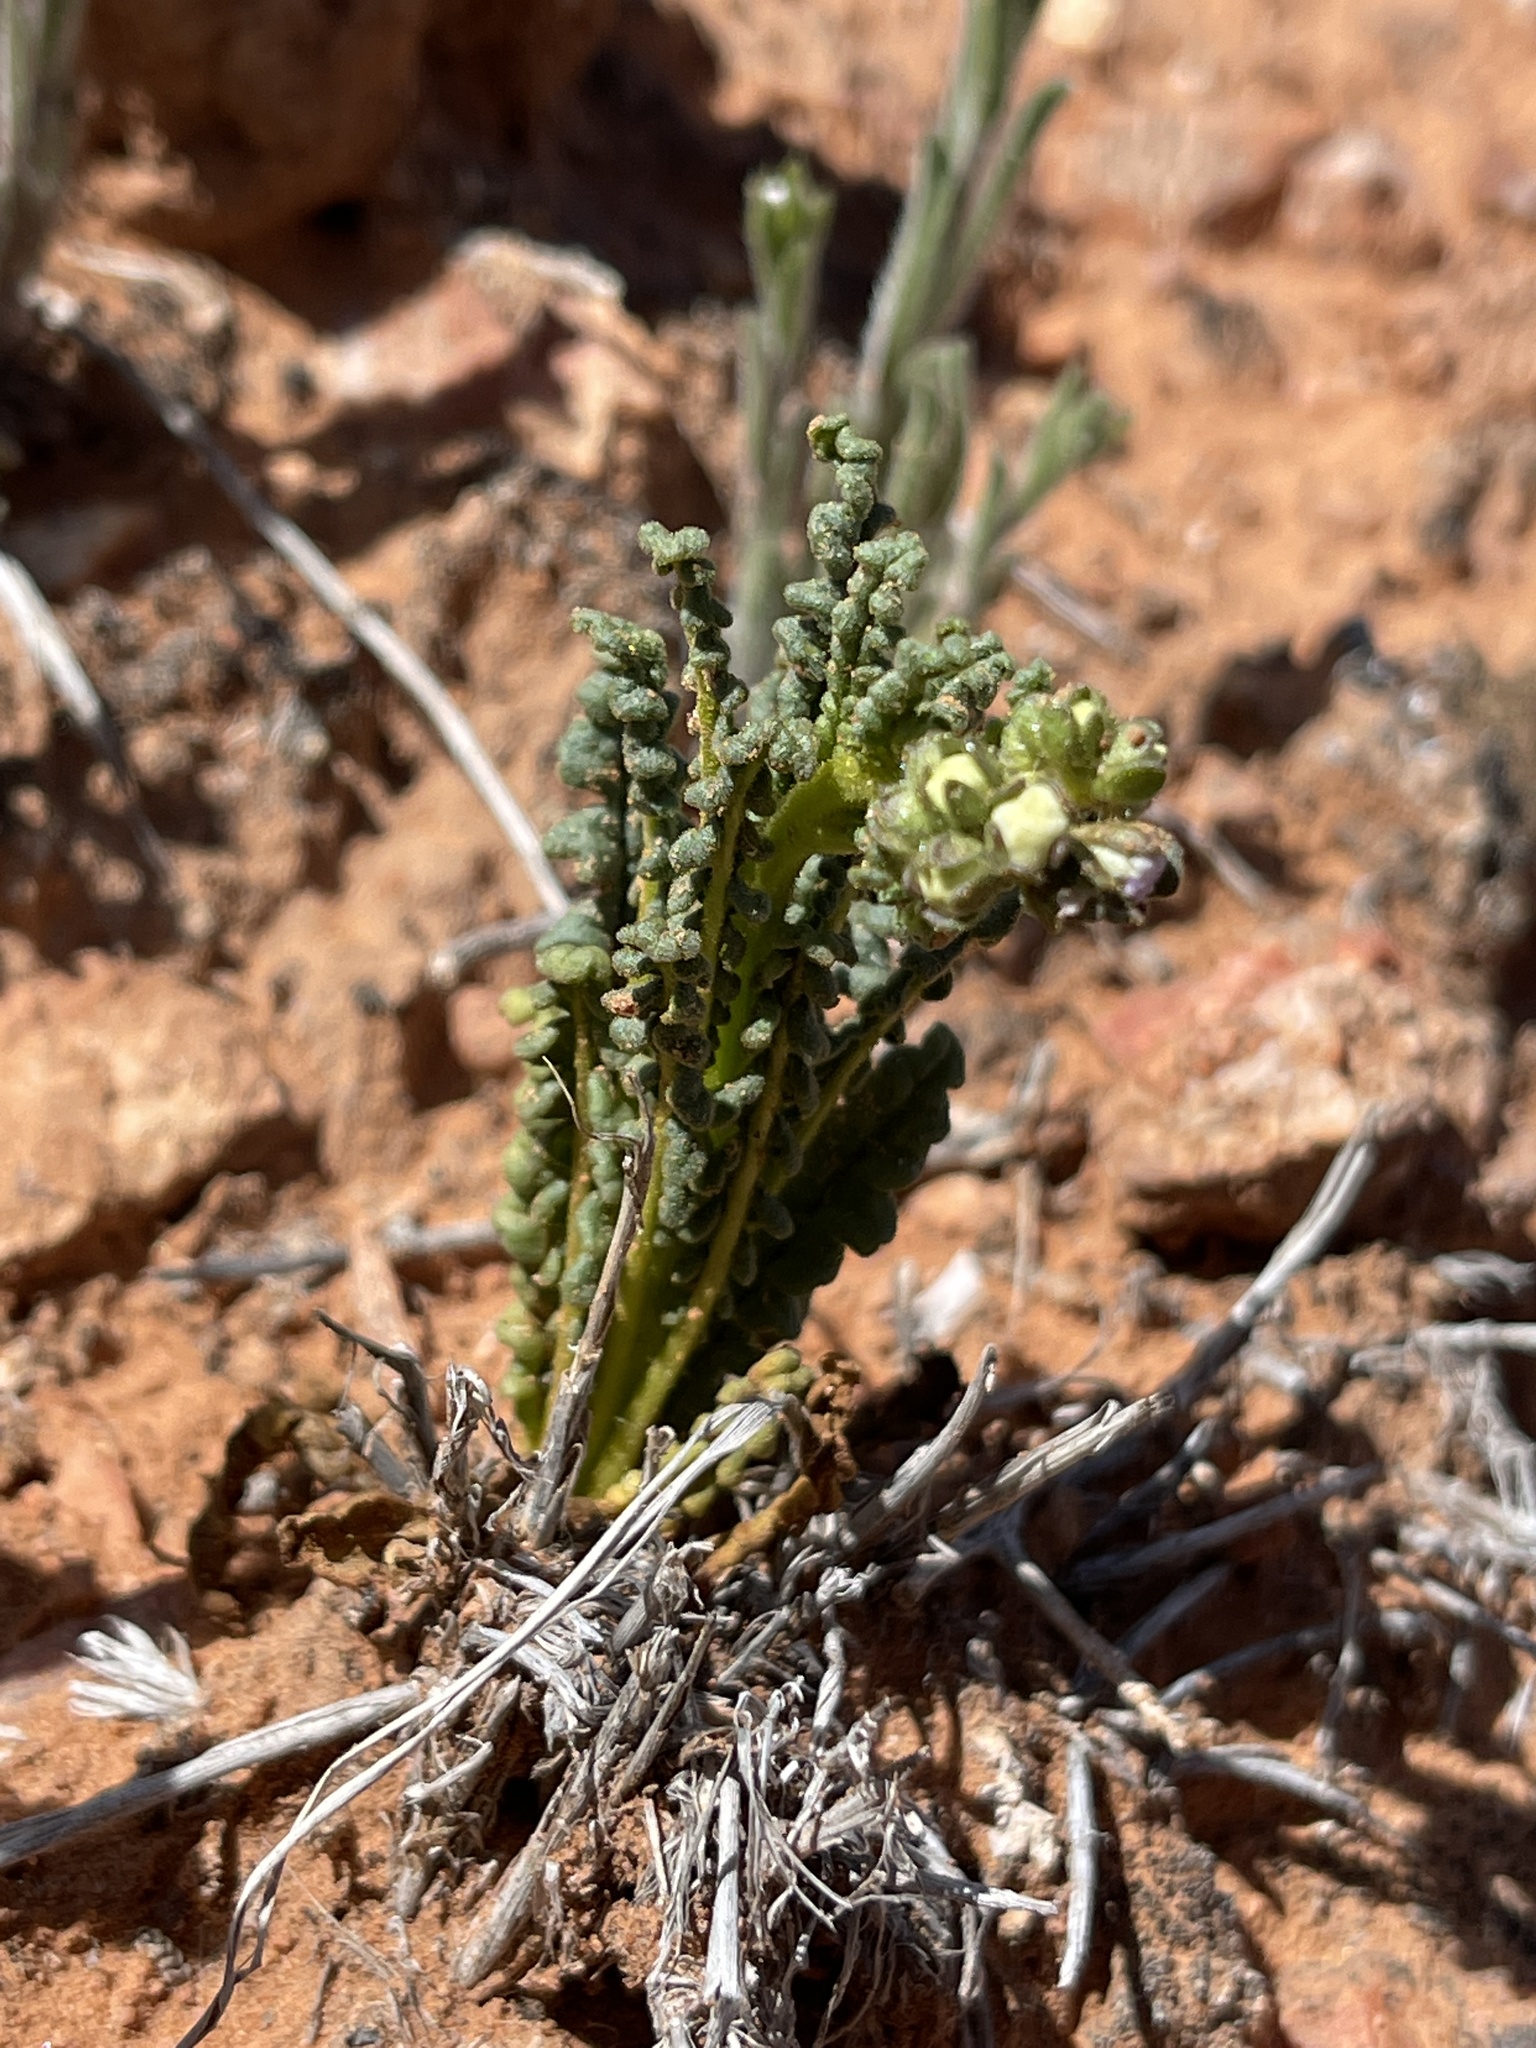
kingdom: Plantae
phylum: Tracheophyta
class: Magnoliopsida
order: Boraginales
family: Hydrophyllaceae
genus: Phacelia
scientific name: Phacelia crenulata
